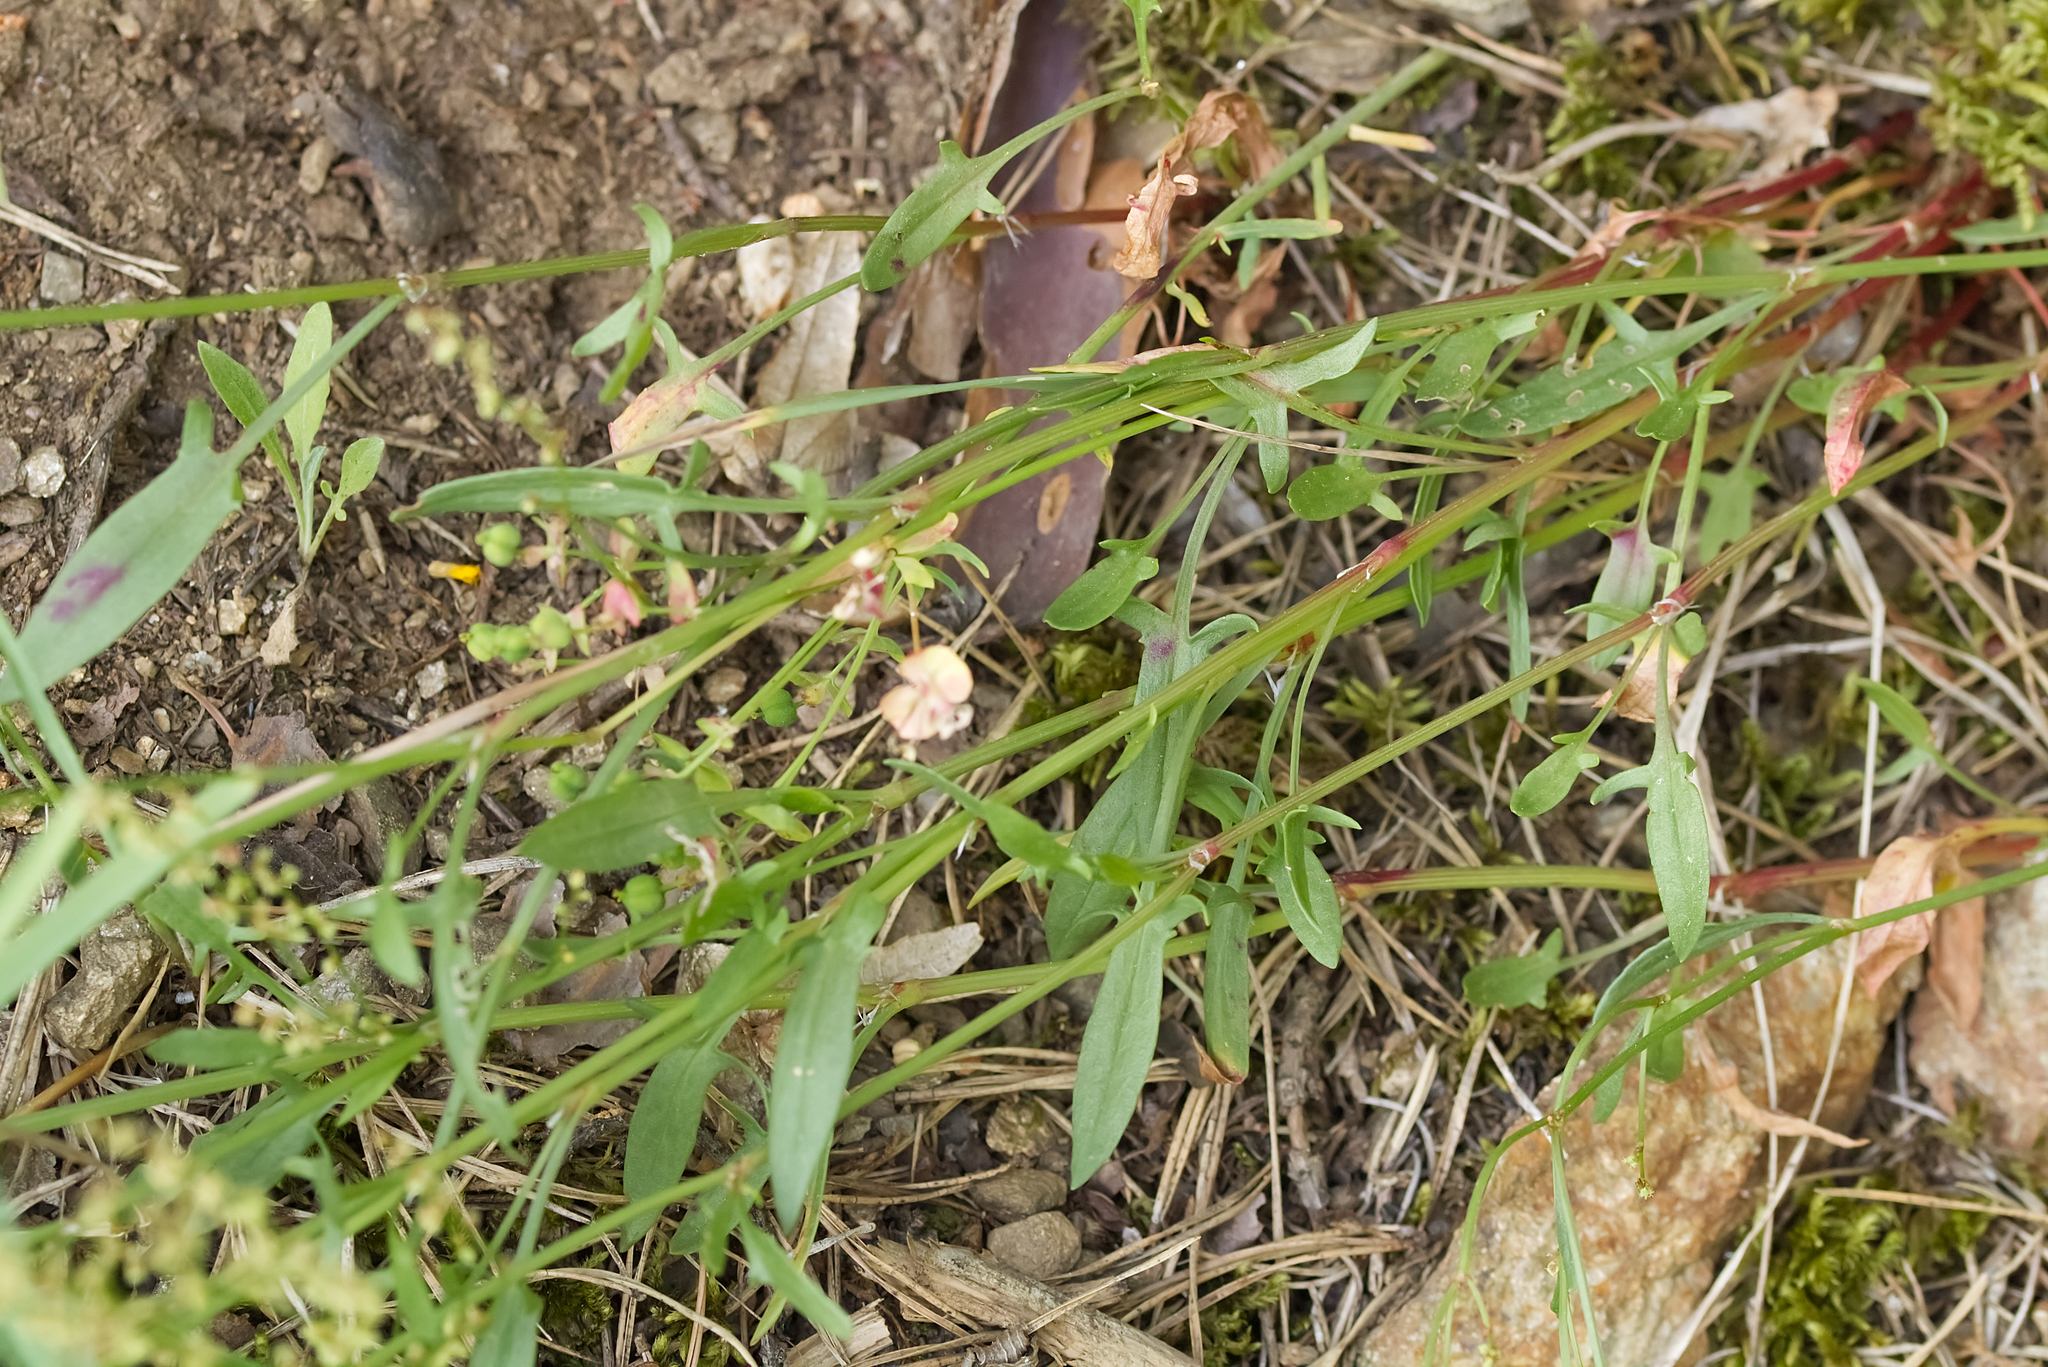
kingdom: Plantae
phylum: Tracheophyta
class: Magnoliopsida
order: Caryophyllales
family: Polygonaceae
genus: Rumex
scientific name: Rumex acetosella
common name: Common sheep sorrel
